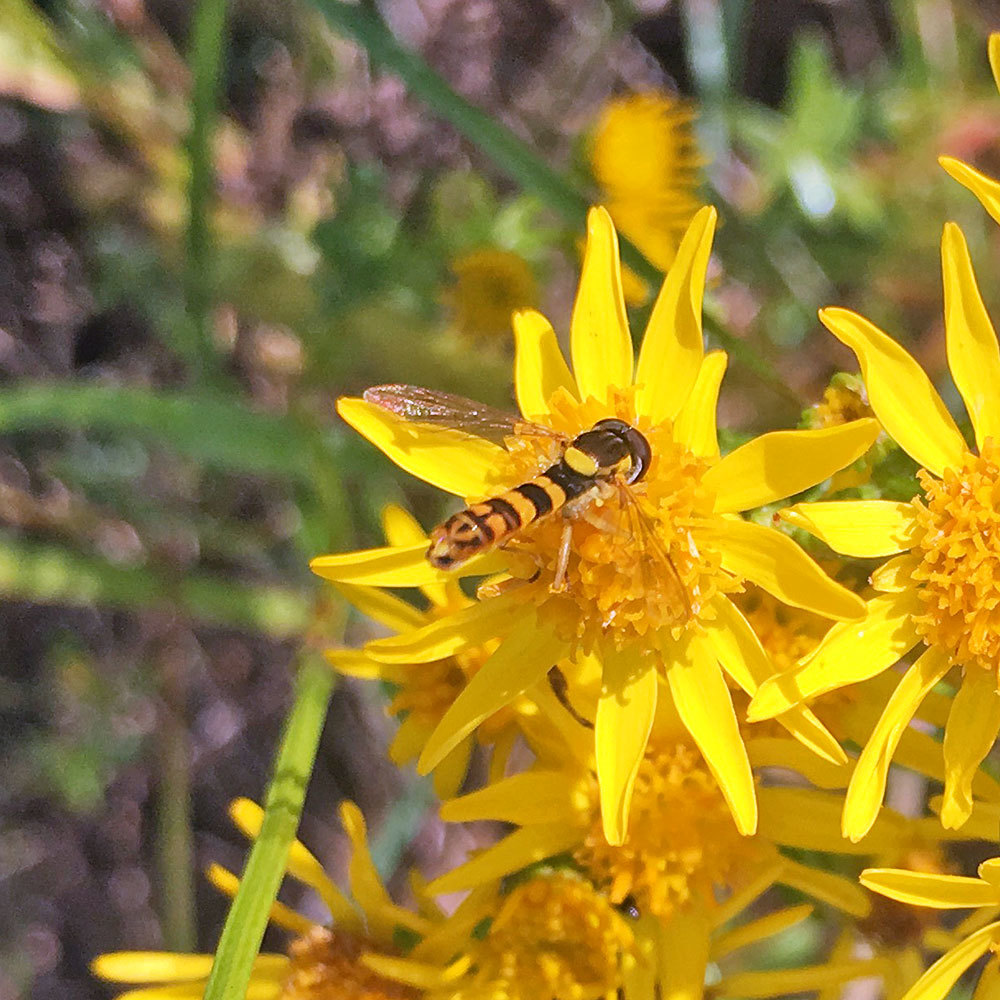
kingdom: Animalia
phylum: Arthropoda
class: Insecta
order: Diptera
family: Syrphidae
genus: Sphaerophoria
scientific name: Sphaerophoria scripta
